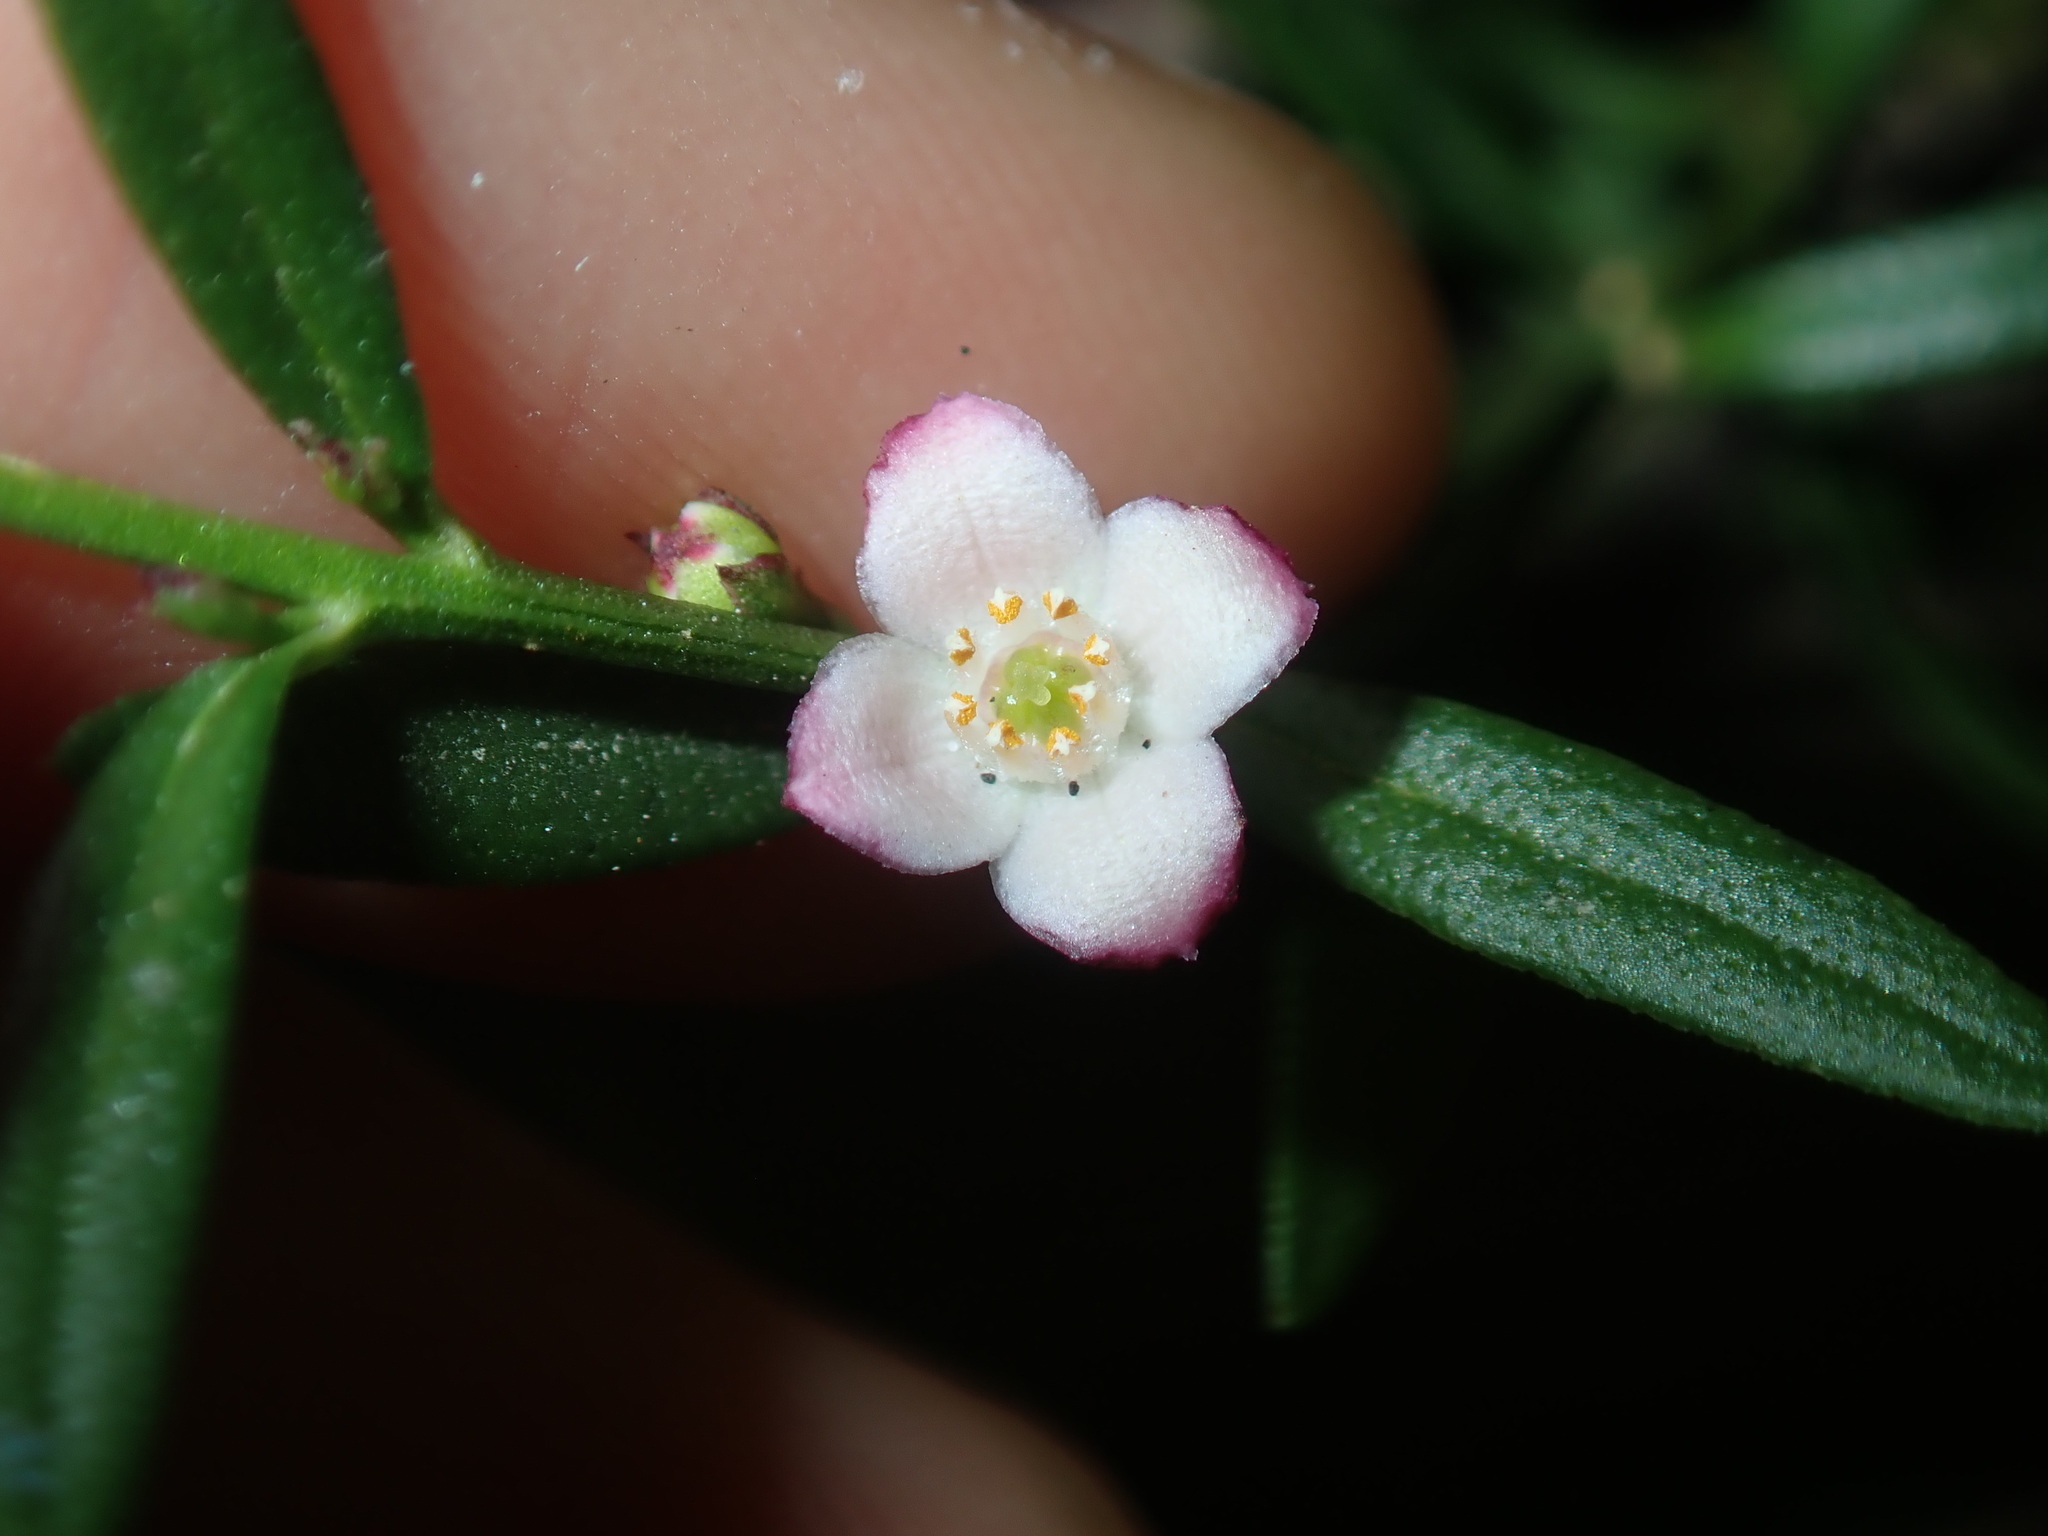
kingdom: Plantae
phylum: Tracheophyta
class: Magnoliopsida
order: Sapindales
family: Rutaceae
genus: Cyanothamnus
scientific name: Cyanothamnus polygalifolius
